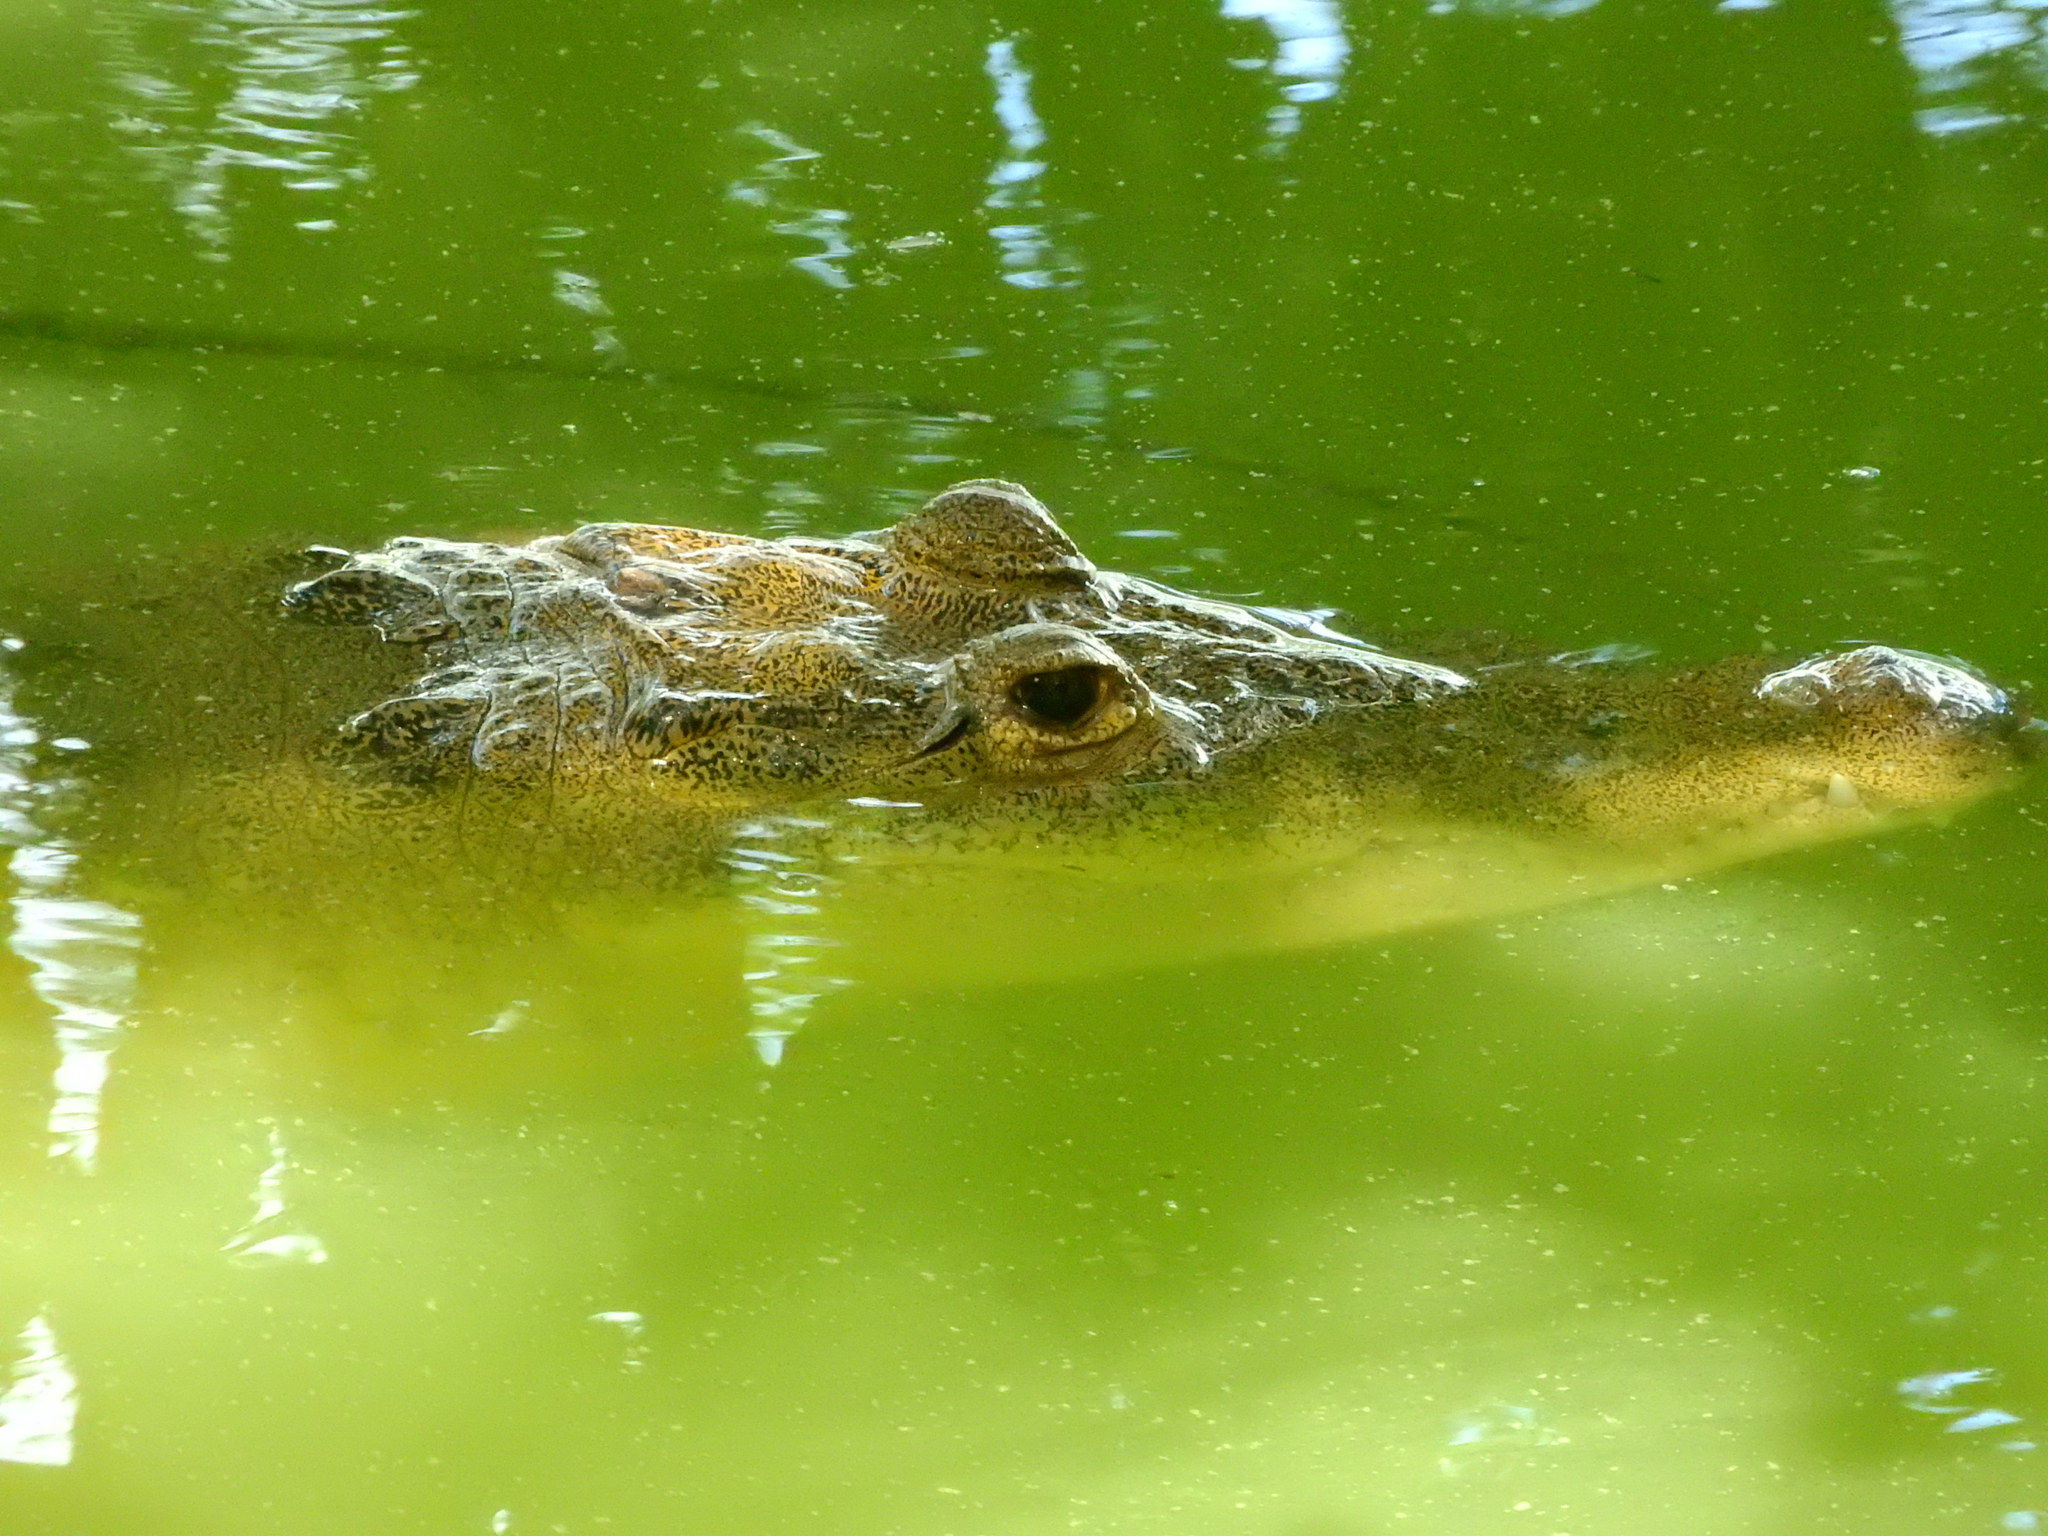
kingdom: Animalia
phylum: Chordata
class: Crocodylia
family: Crocodylidae
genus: Crocodylus
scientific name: Crocodylus moreletii
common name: Morelet's crocodile
